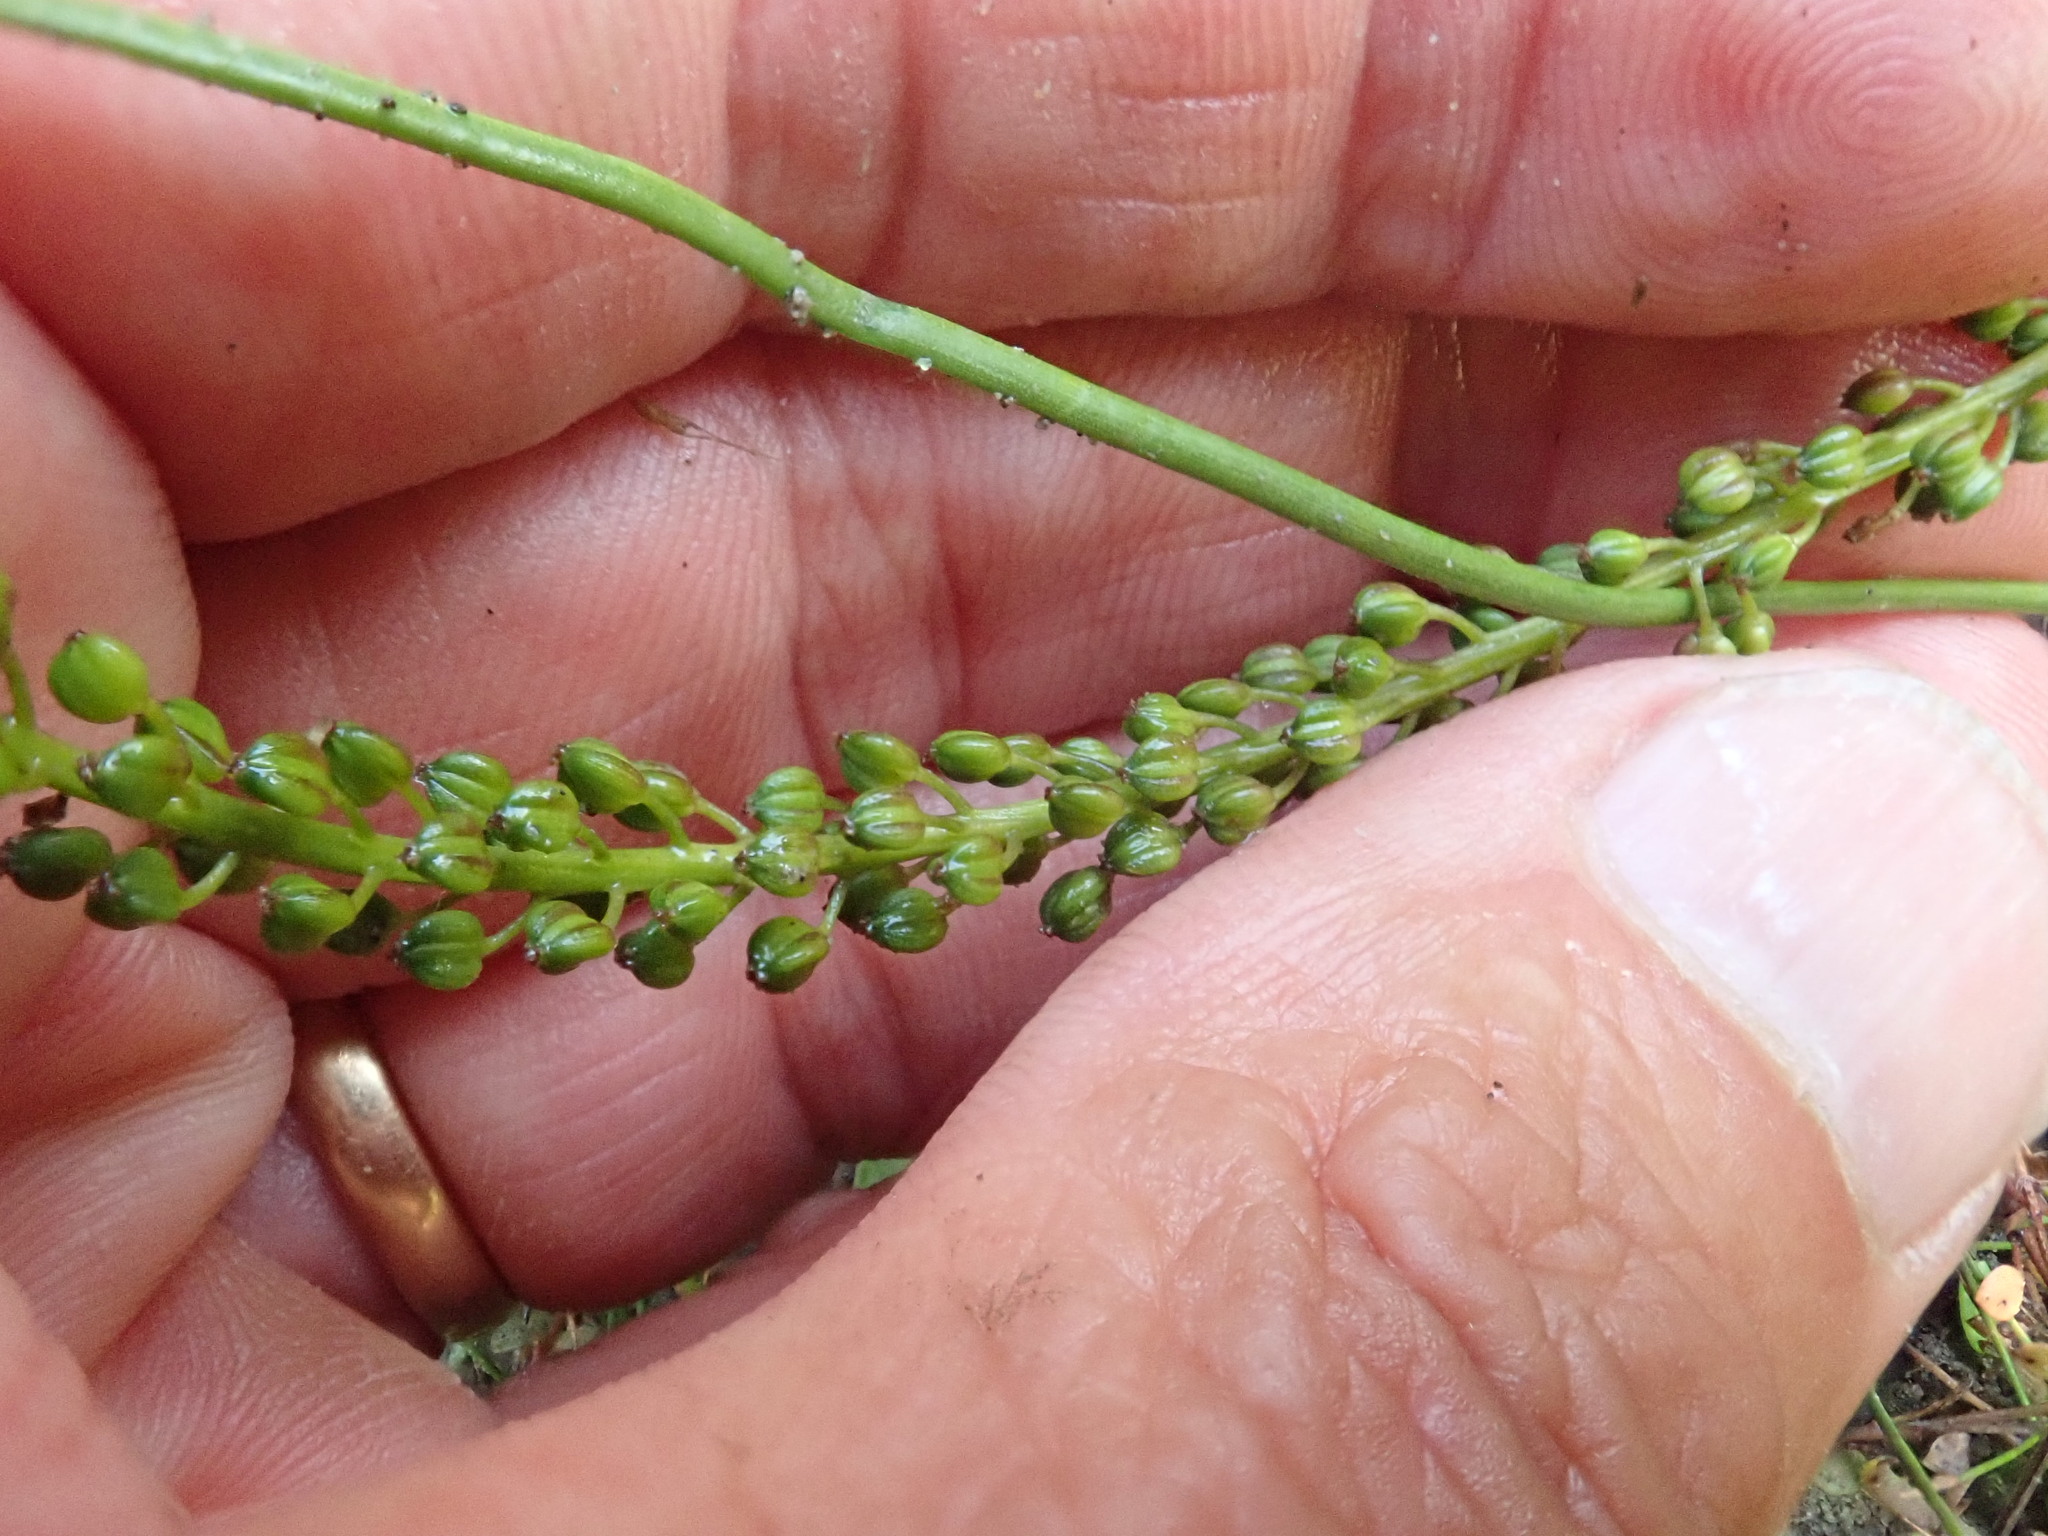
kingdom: Plantae
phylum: Tracheophyta
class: Liliopsida
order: Alismatales
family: Juncaginaceae
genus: Triglochin
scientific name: Triglochin striata
